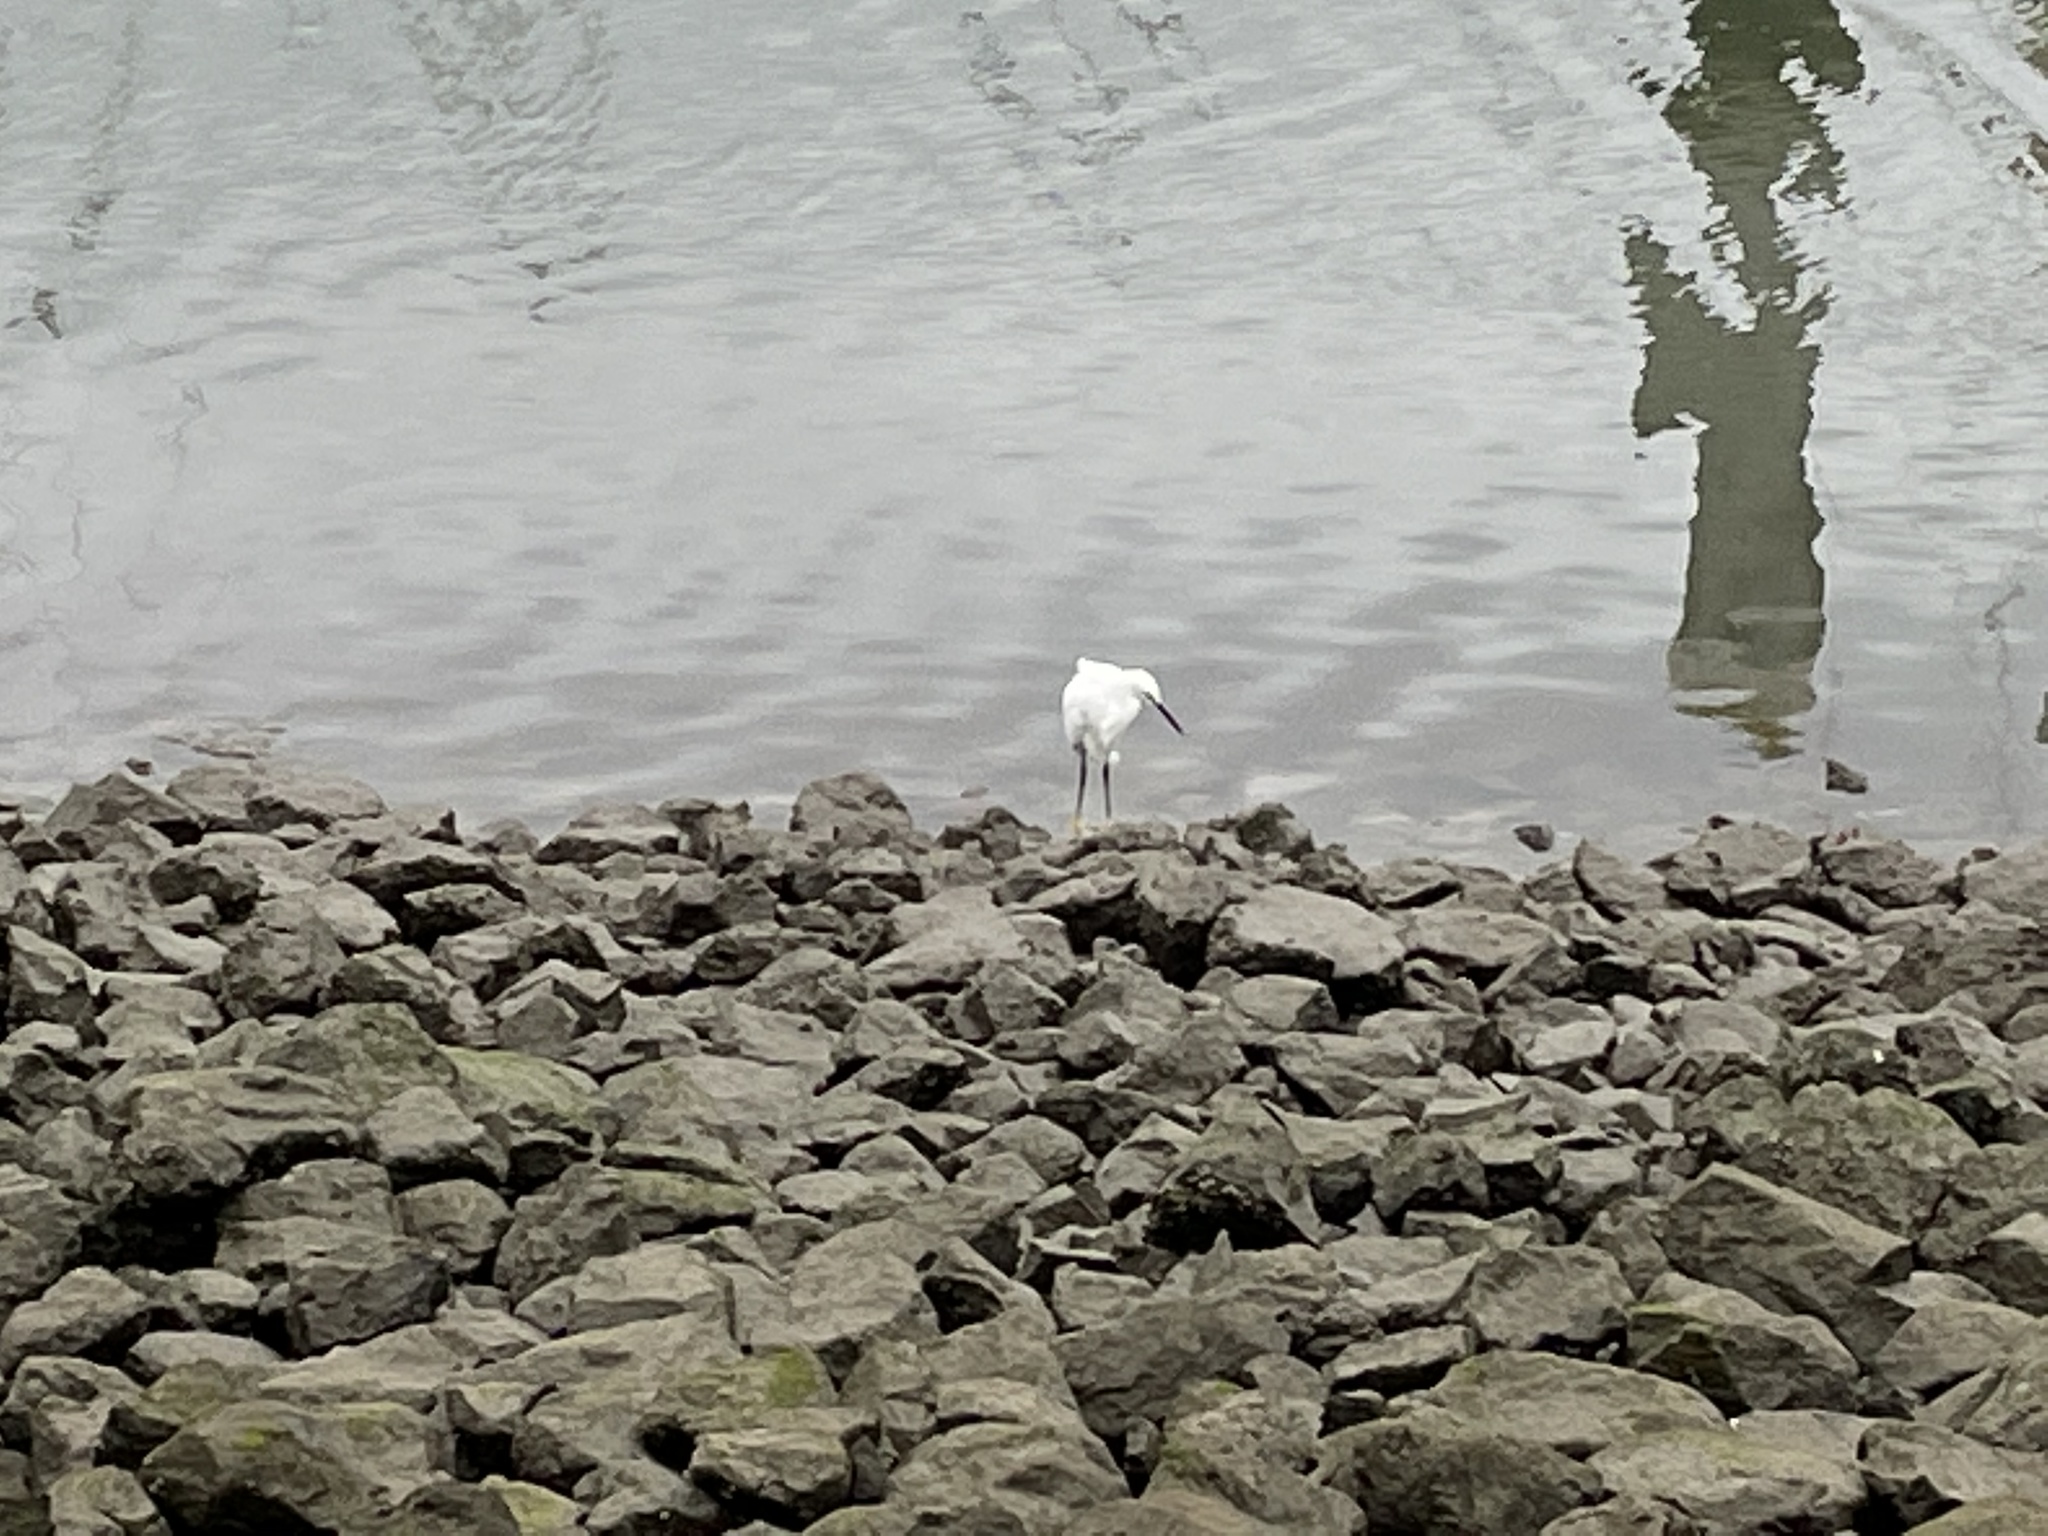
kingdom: Animalia
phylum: Chordata
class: Aves
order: Pelecaniformes
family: Ardeidae
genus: Egretta
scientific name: Egretta thula
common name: Snowy egret
